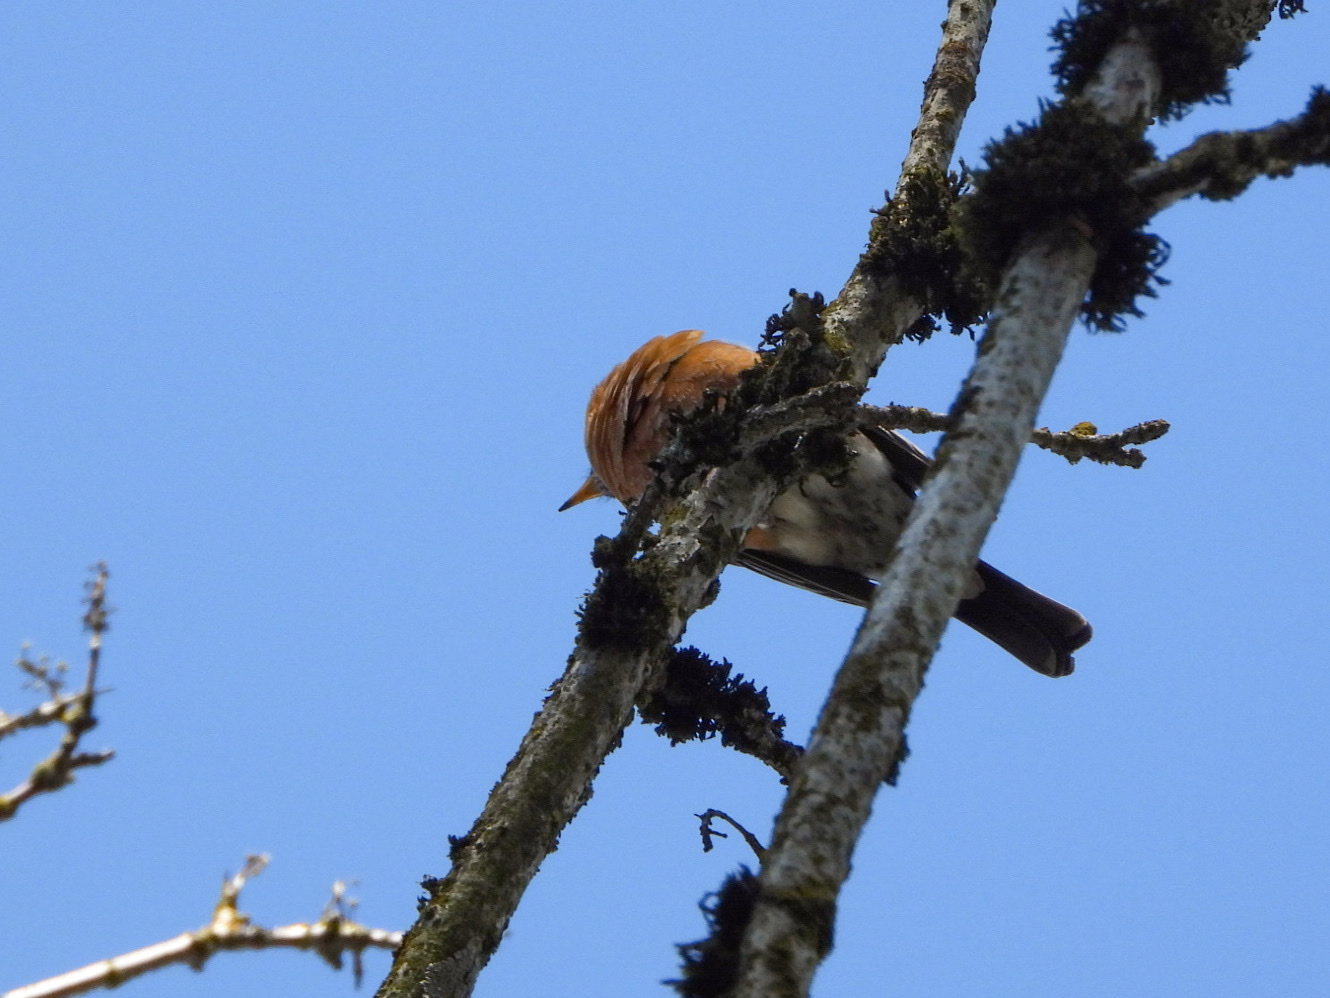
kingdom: Animalia
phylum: Chordata
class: Aves
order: Passeriformes
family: Turdidae
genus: Turdus
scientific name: Turdus migratorius
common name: American robin
